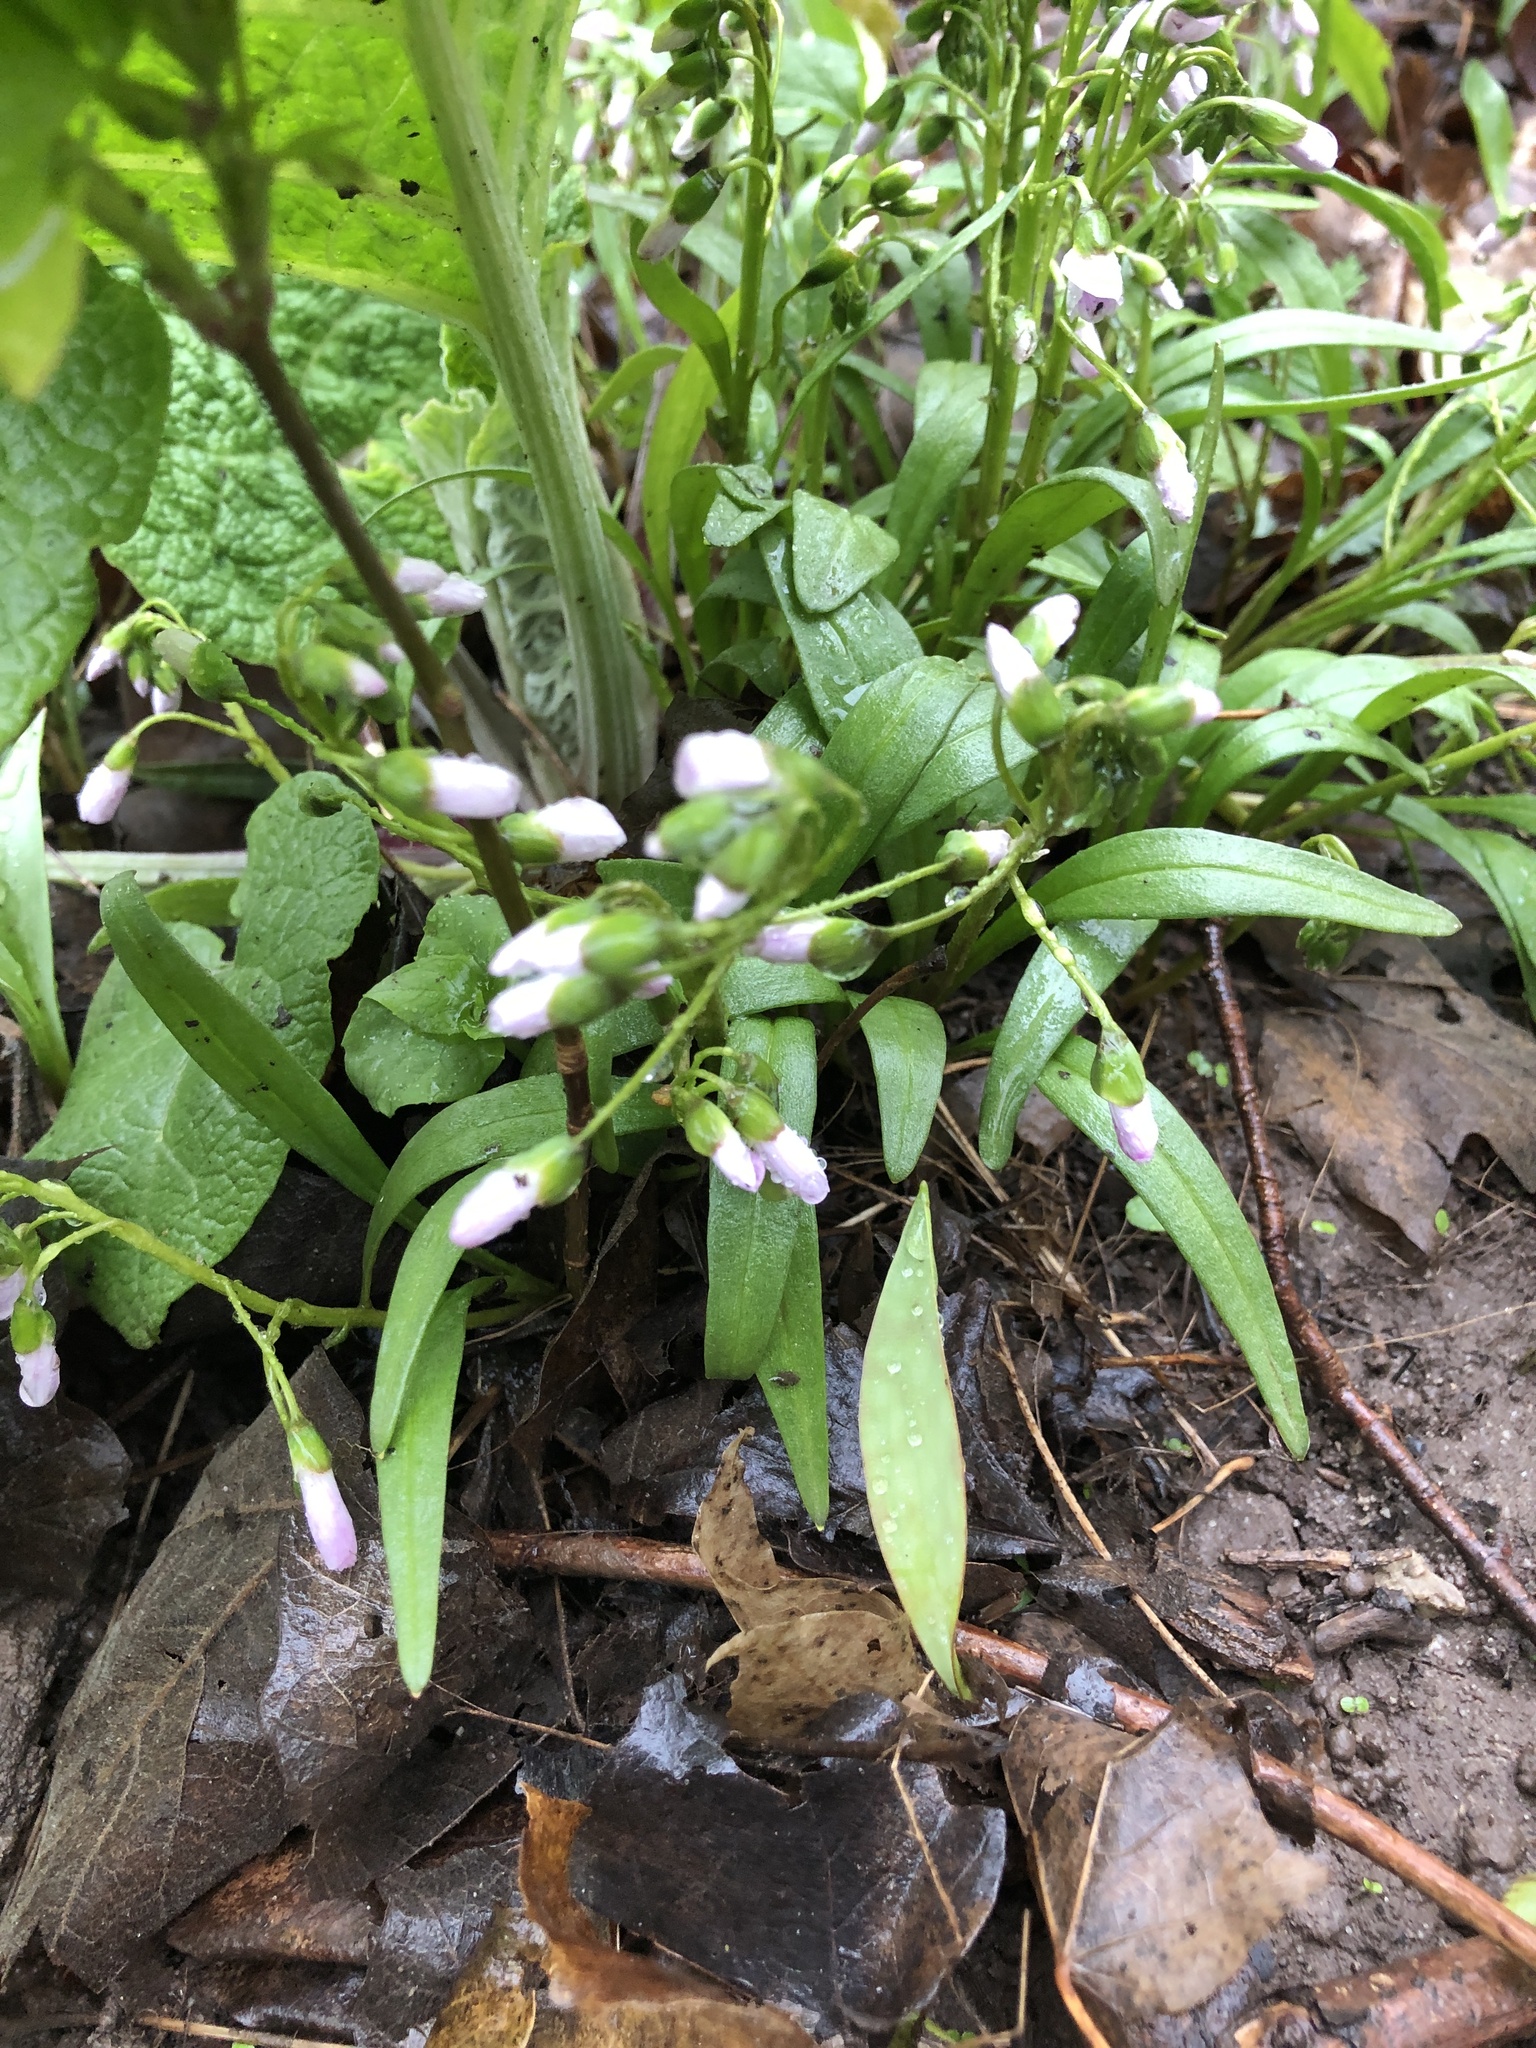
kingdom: Plantae
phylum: Tracheophyta
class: Magnoliopsida
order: Caryophyllales
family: Montiaceae
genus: Claytonia
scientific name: Claytonia virginica
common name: Virginia springbeauty
